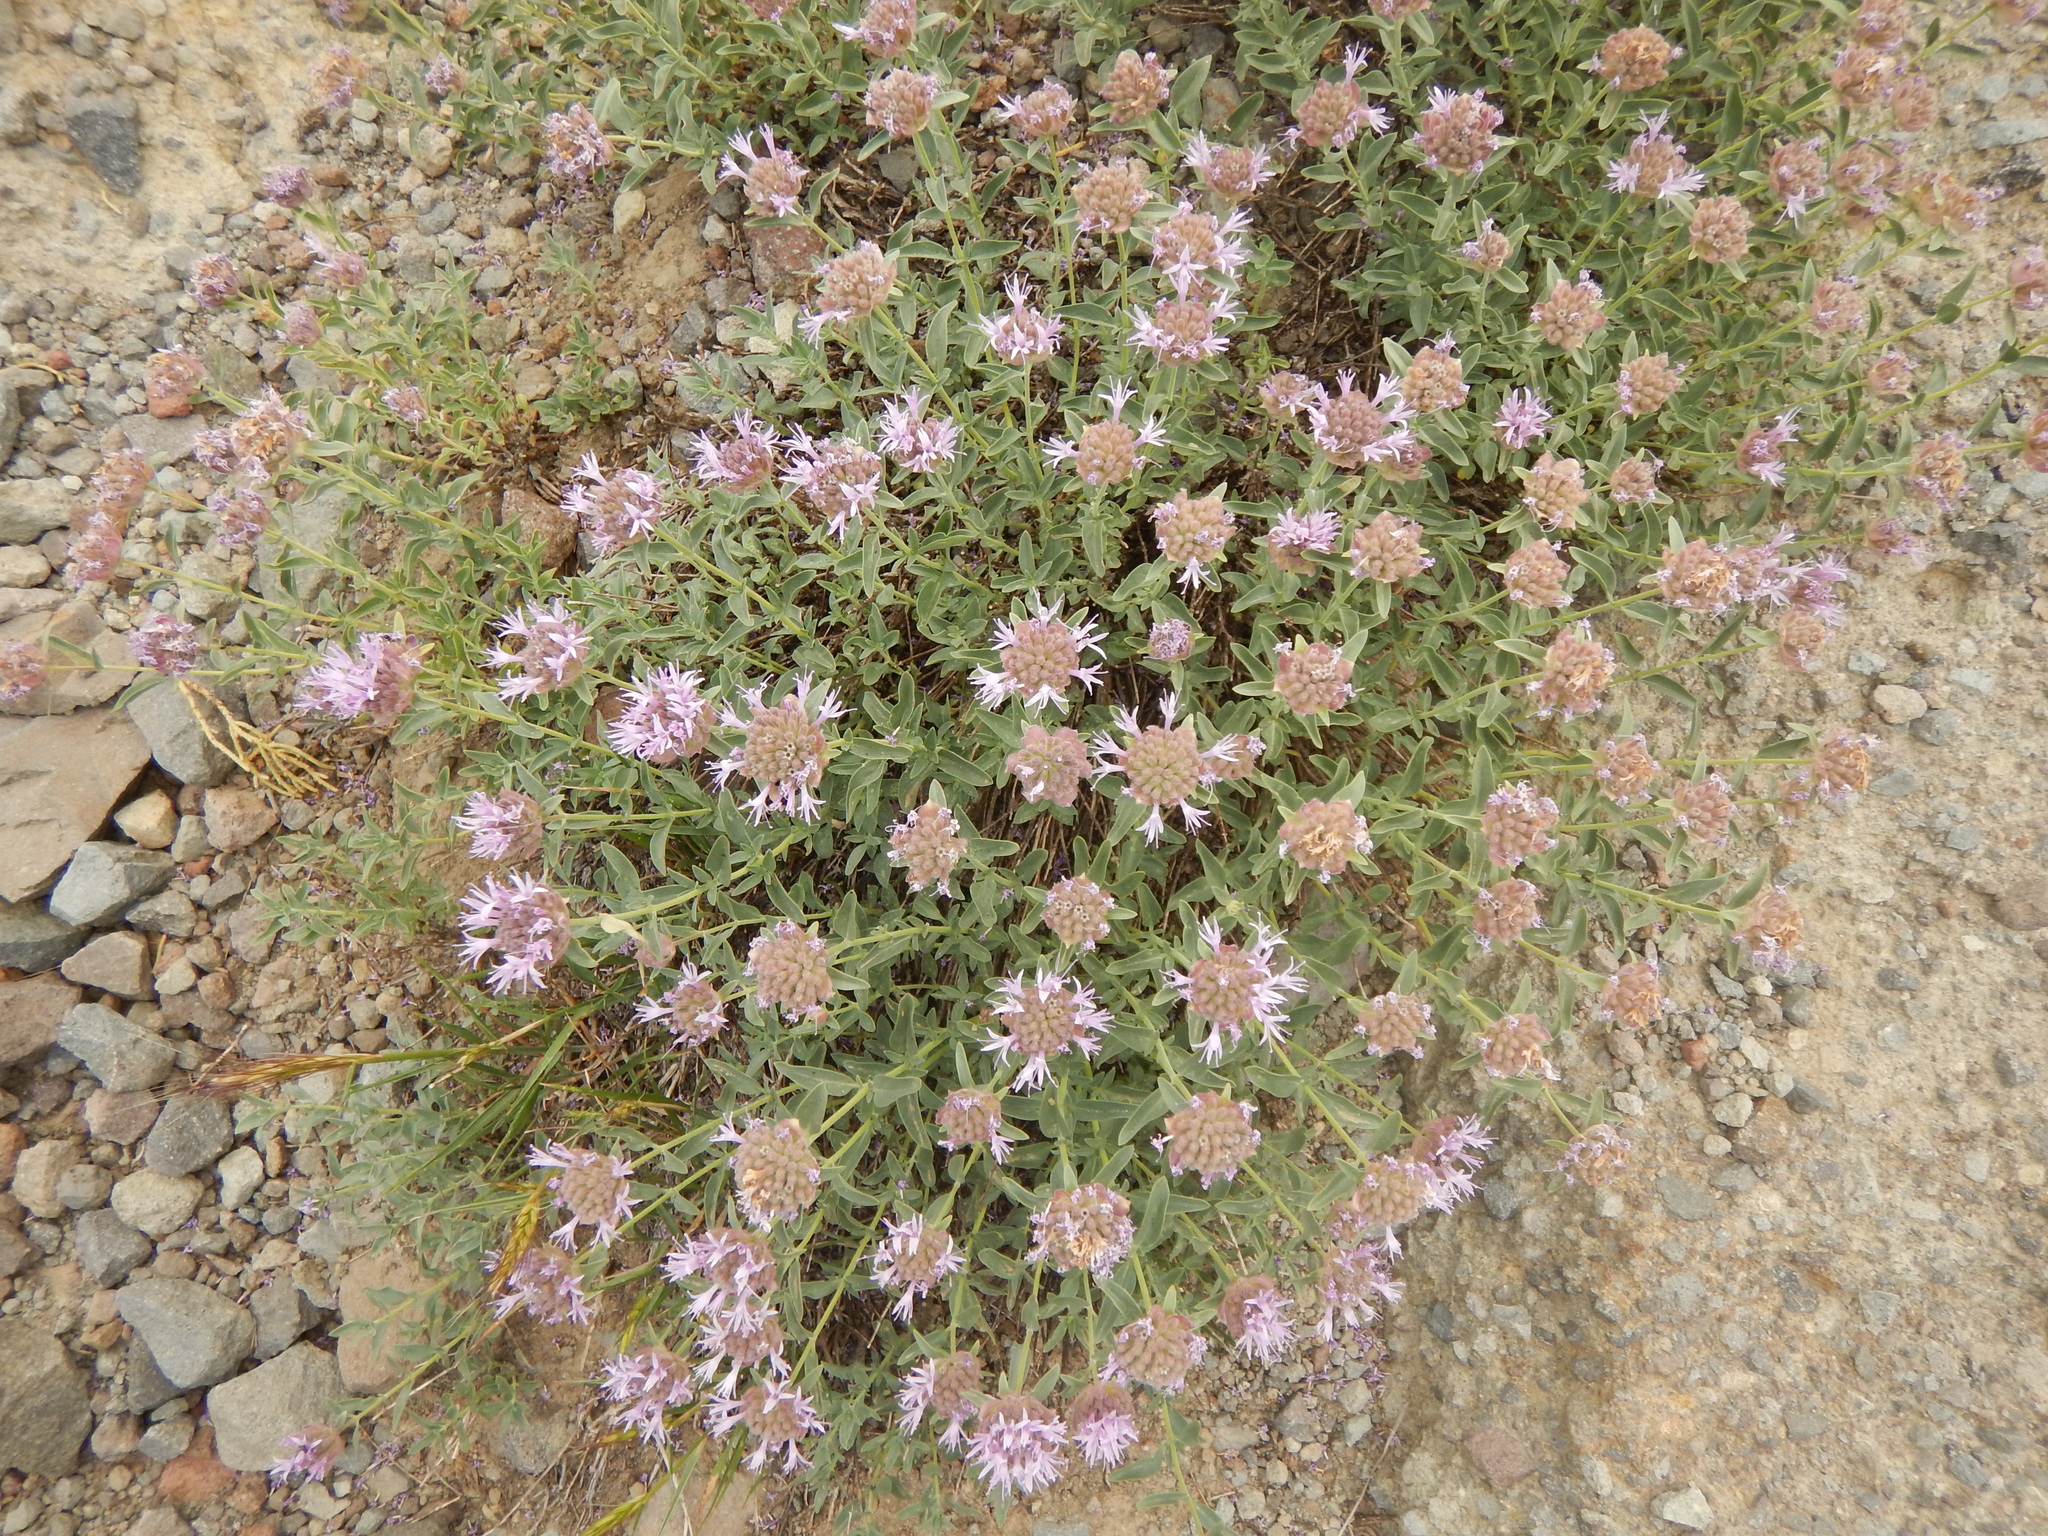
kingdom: Plantae
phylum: Tracheophyta
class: Magnoliopsida
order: Lamiales
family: Lamiaceae
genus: Monardella
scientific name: Monardella odoratissima
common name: Pacific monardella
